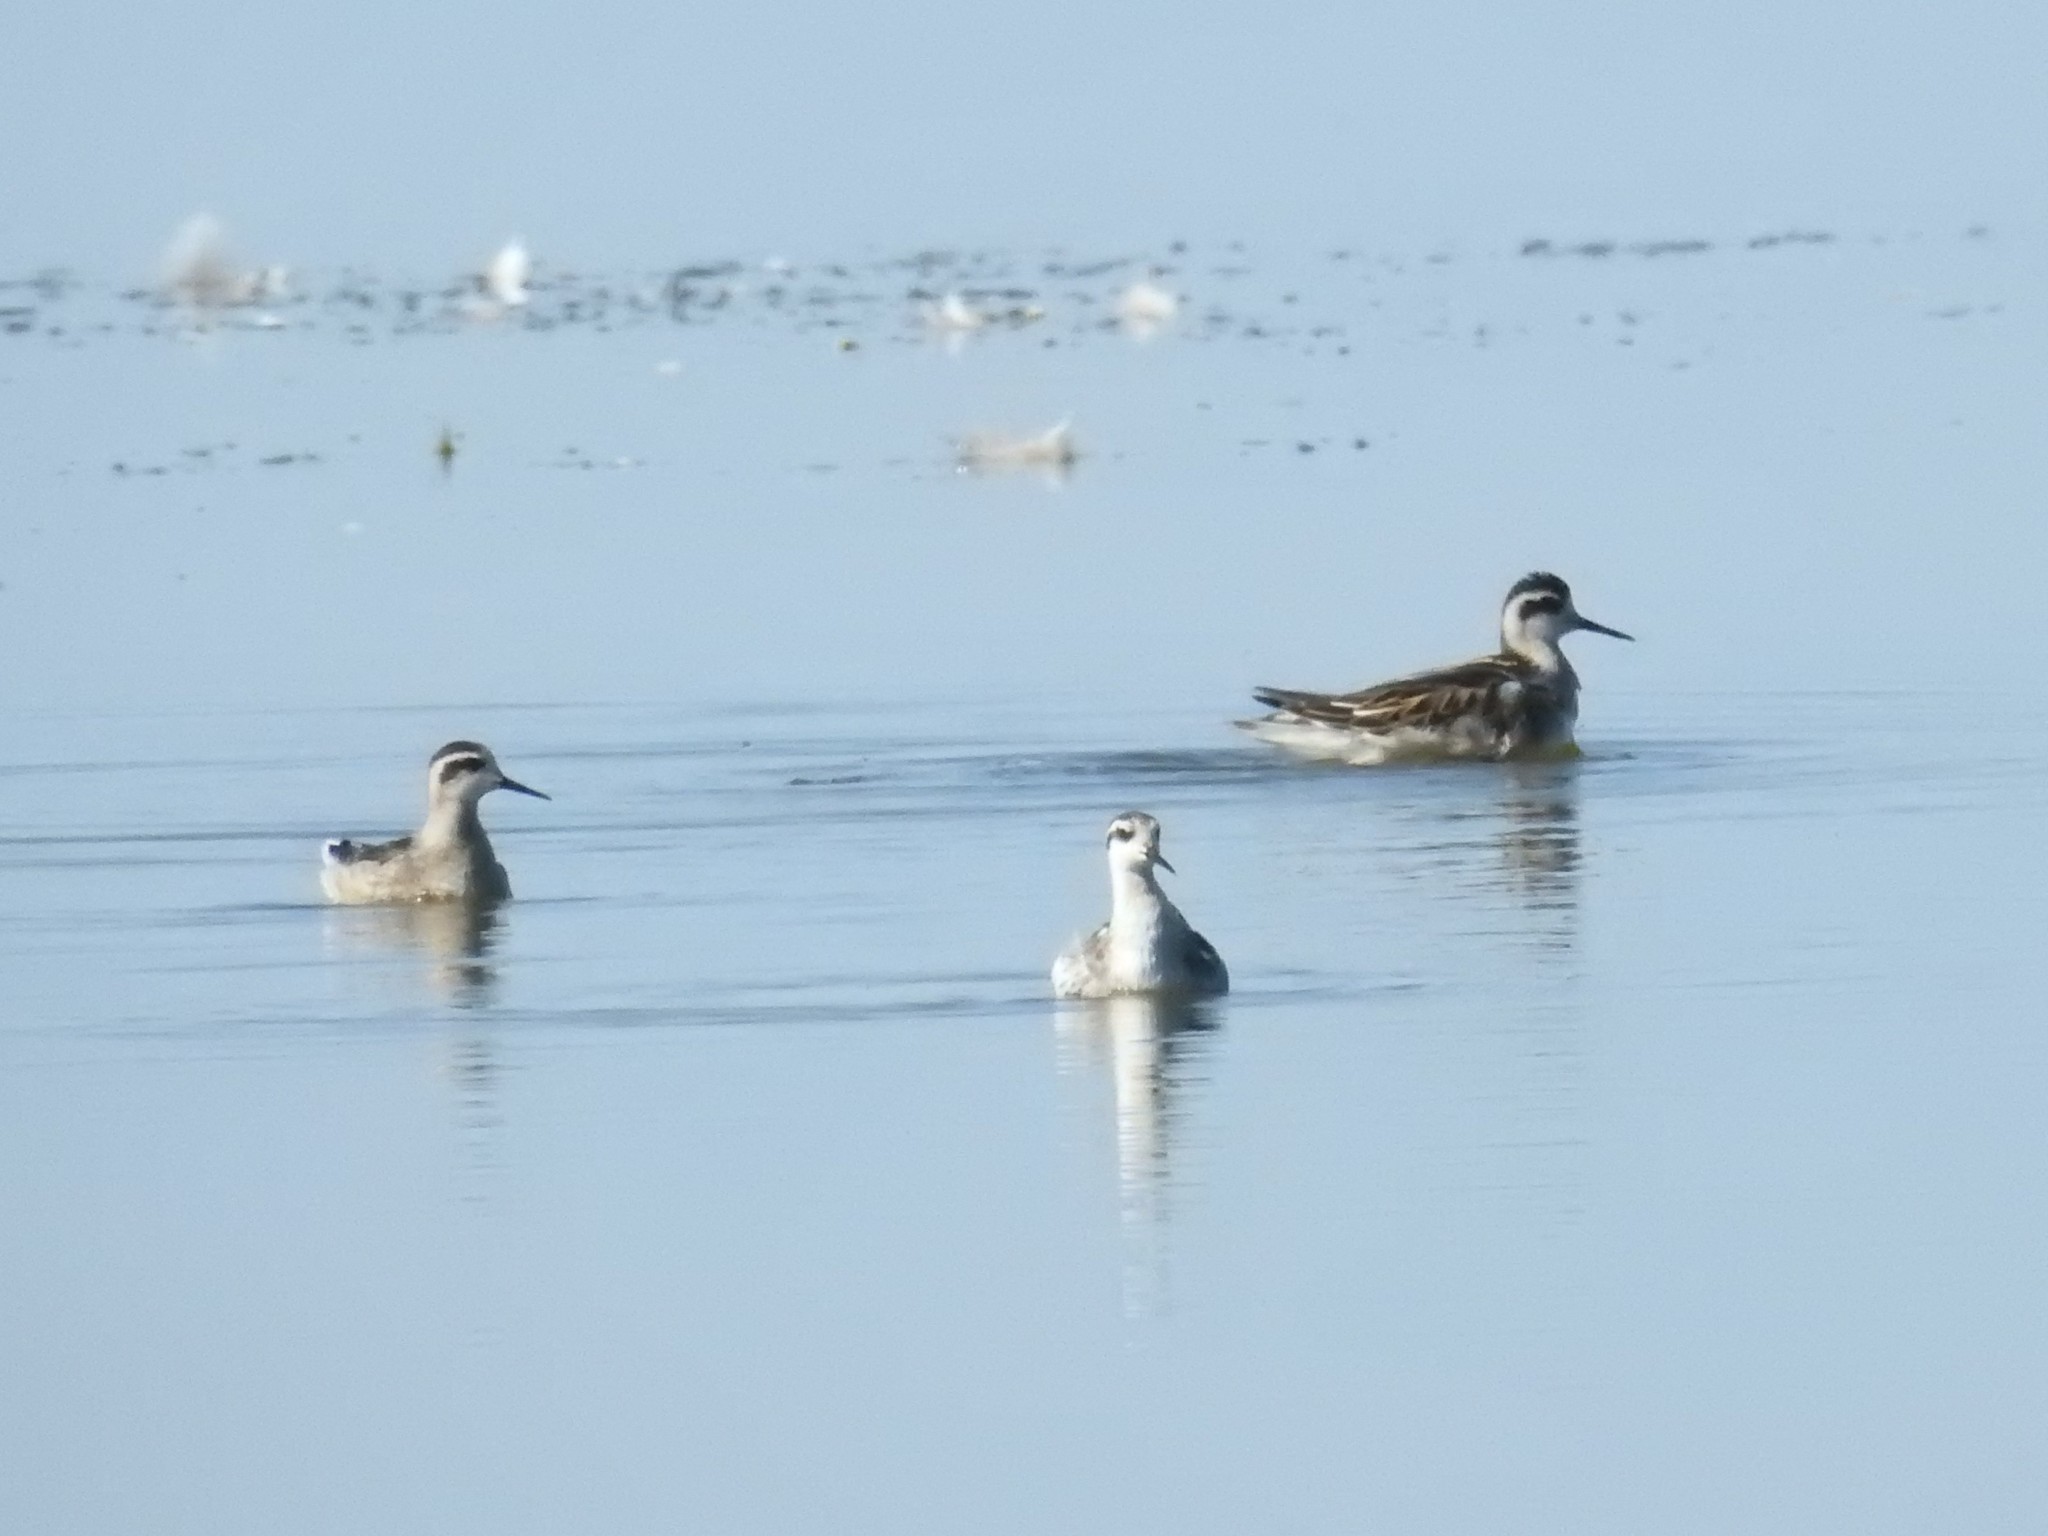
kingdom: Animalia
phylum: Chordata
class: Aves
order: Charadriiformes
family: Scolopacidae
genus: Phalaropus
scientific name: Phalaropus lobatus
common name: Red-necked phalarope
